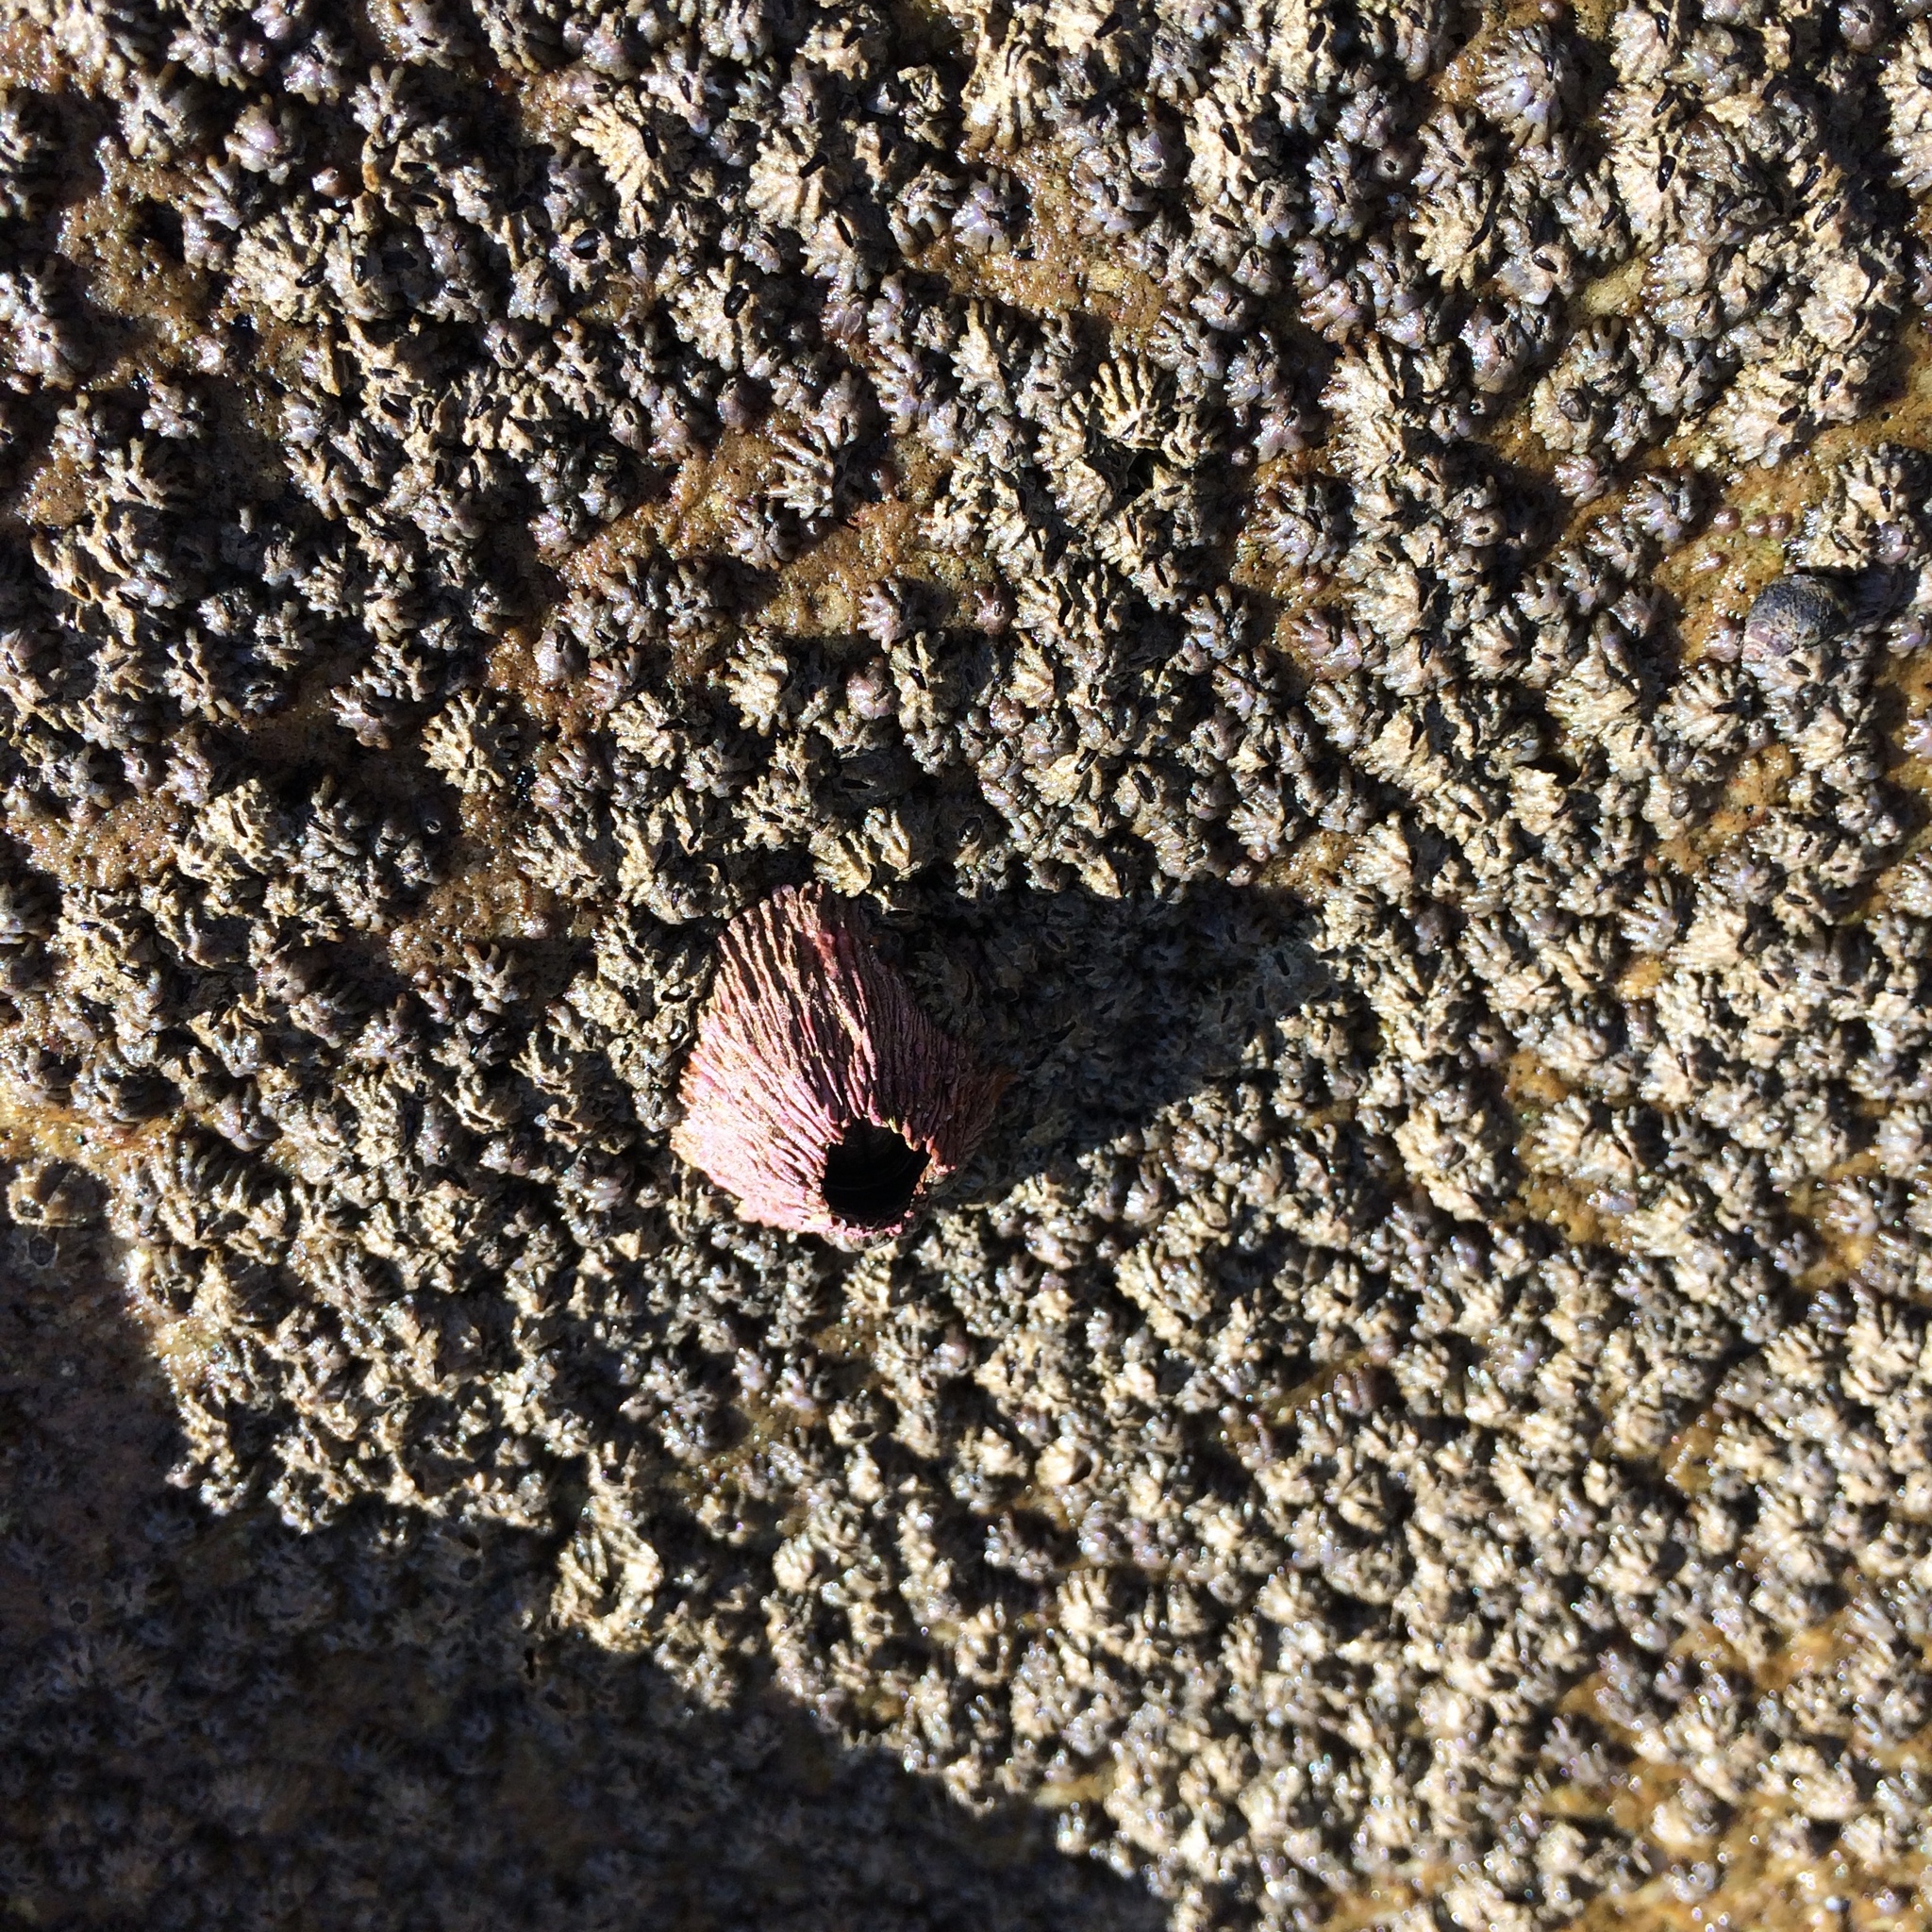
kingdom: Animalia
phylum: Arthropoda
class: Maxillopoda
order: Sessilia
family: Tetraclitidae
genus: Tetraclita
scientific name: Tetraclita rubescens
